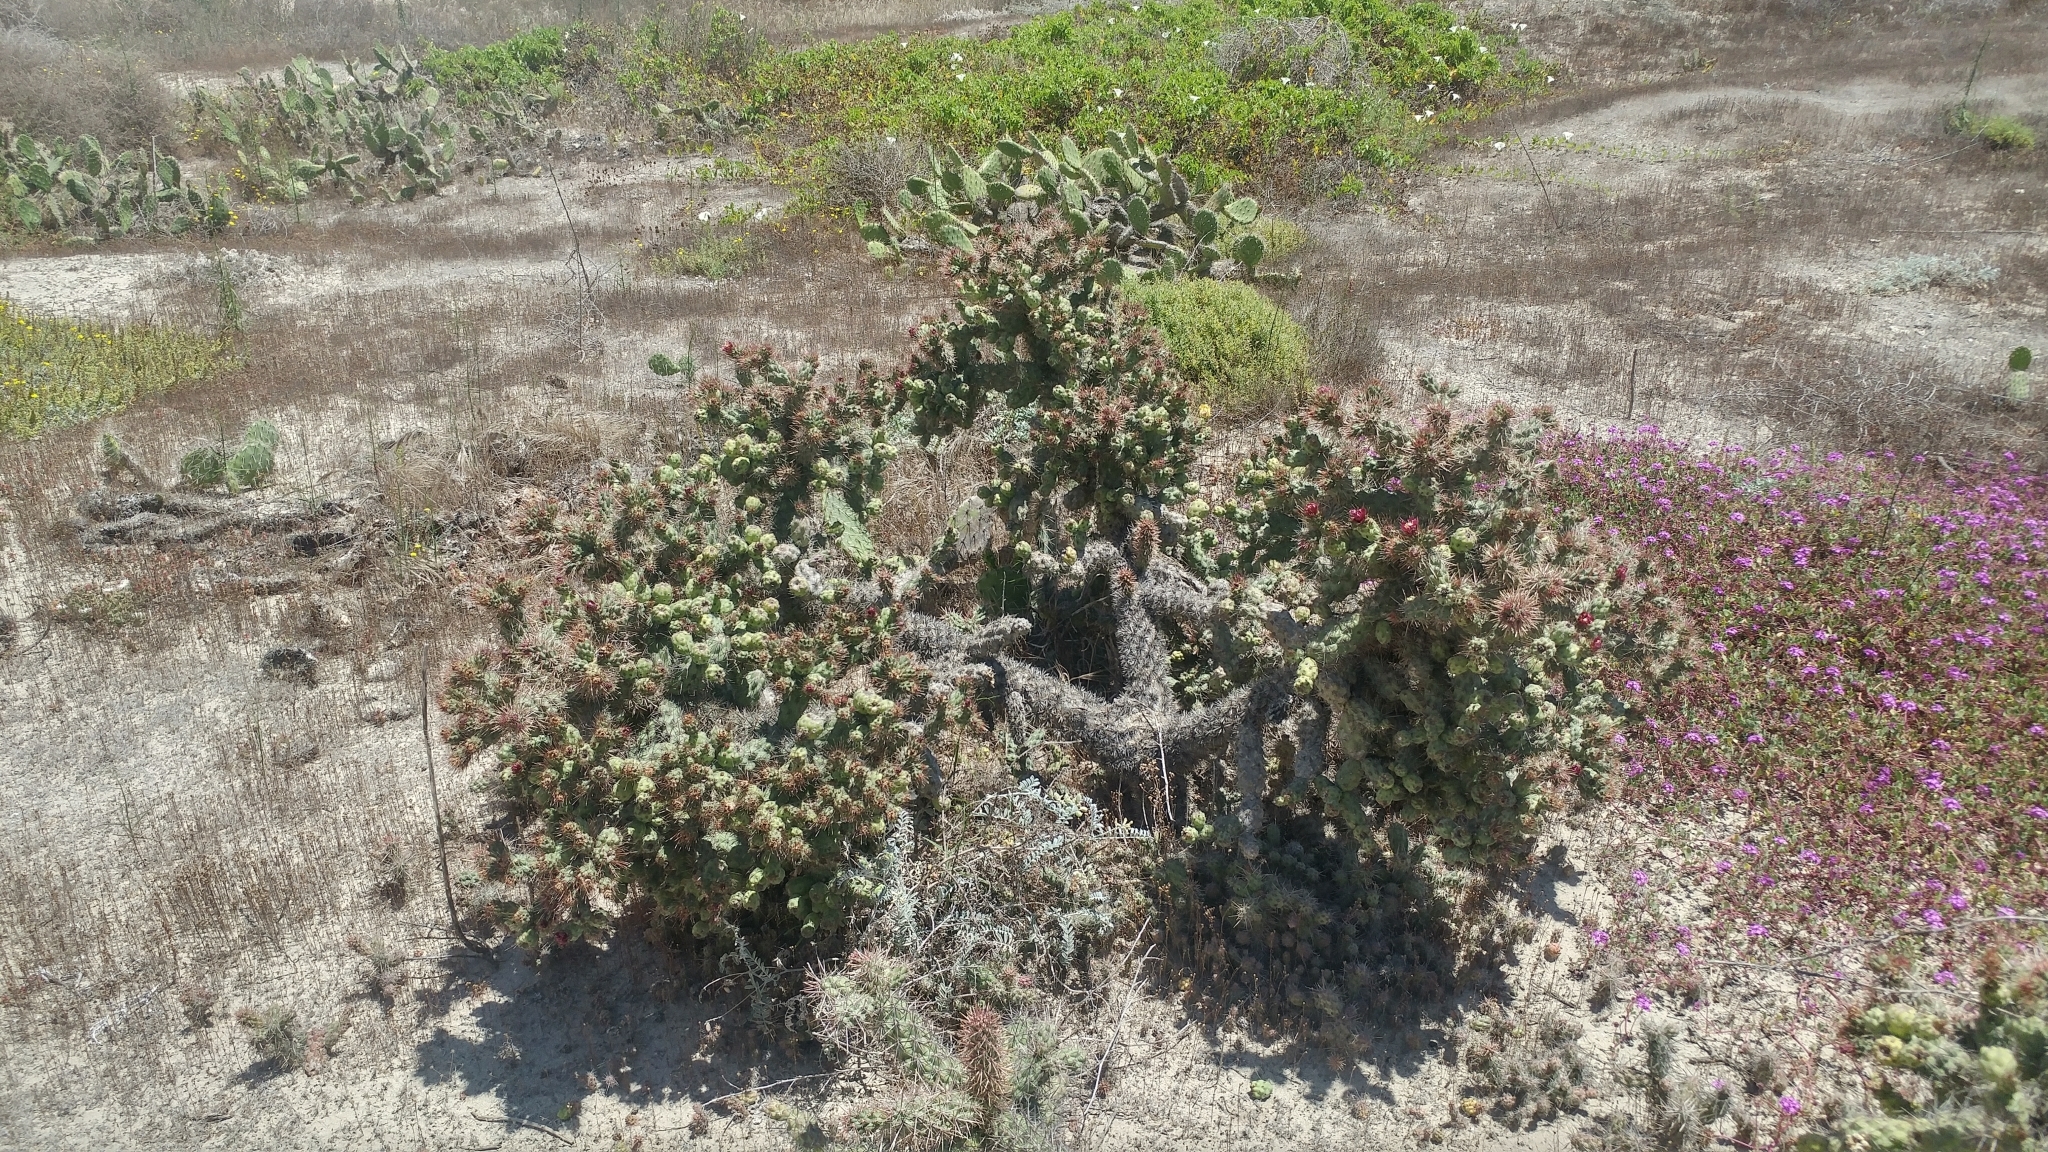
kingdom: Plantae
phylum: Tracheophyta
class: Magnoliopsida
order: Caryophyllales
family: Cactaceae
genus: Cylindropuntia
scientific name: Cylindropuntia prolifera
